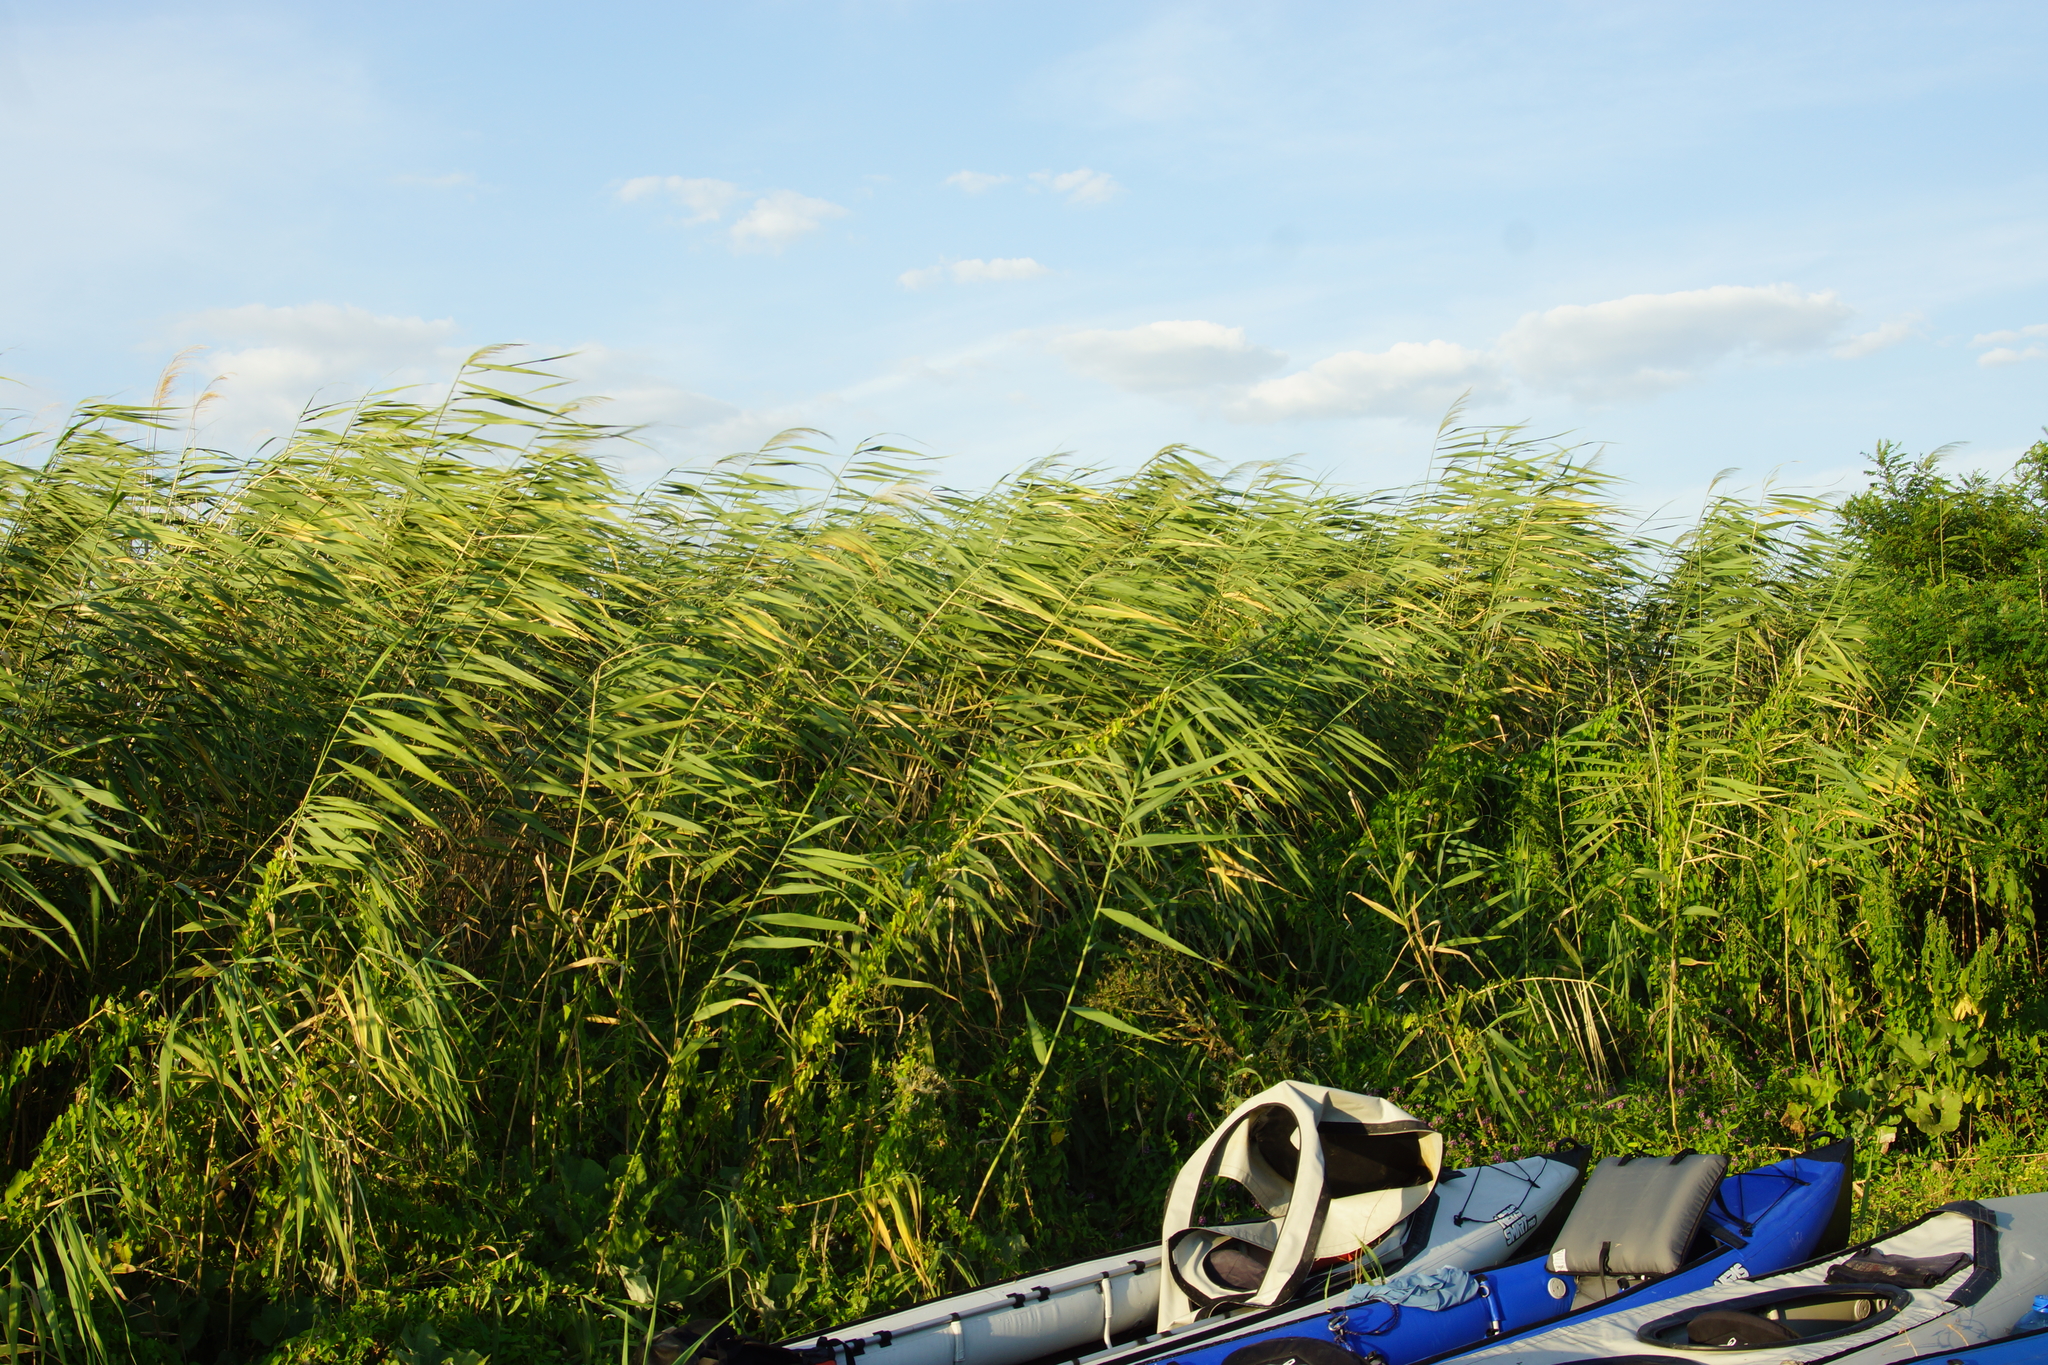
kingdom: Plantae
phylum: Tracheophyta
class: Liliopsida
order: Poales
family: Poaceae
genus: Phragmites
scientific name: Phragmites australis
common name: Common reed
